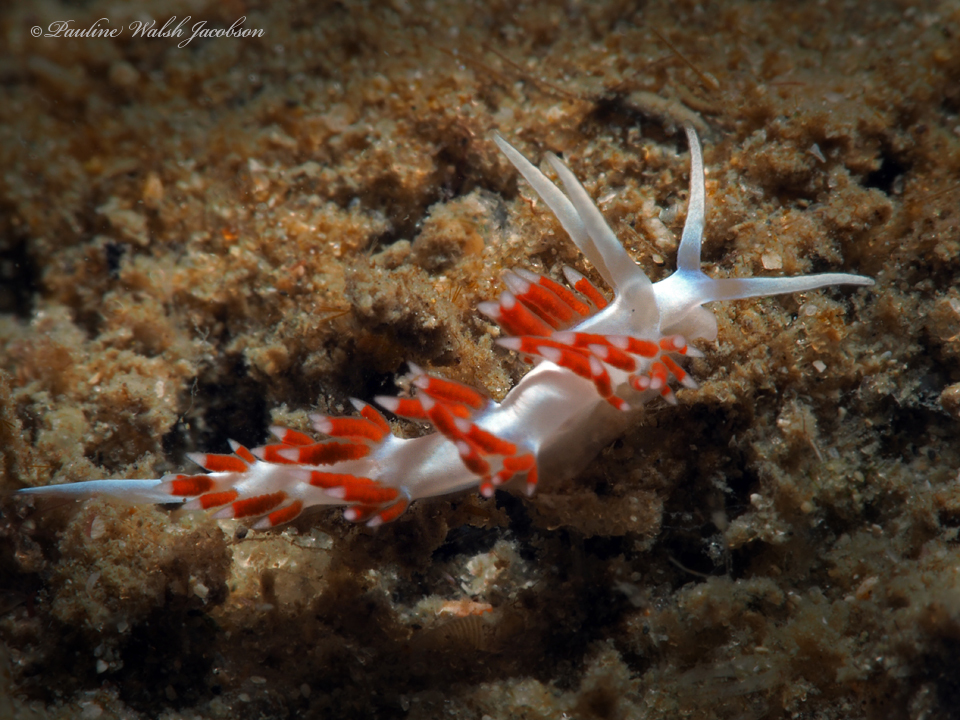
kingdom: Animalia
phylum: Mollusca
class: Gastropoda
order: Nudibranchia
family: Flabellinidae
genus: Flabellina
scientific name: Flabellina dushia
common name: Dushia flabellina
